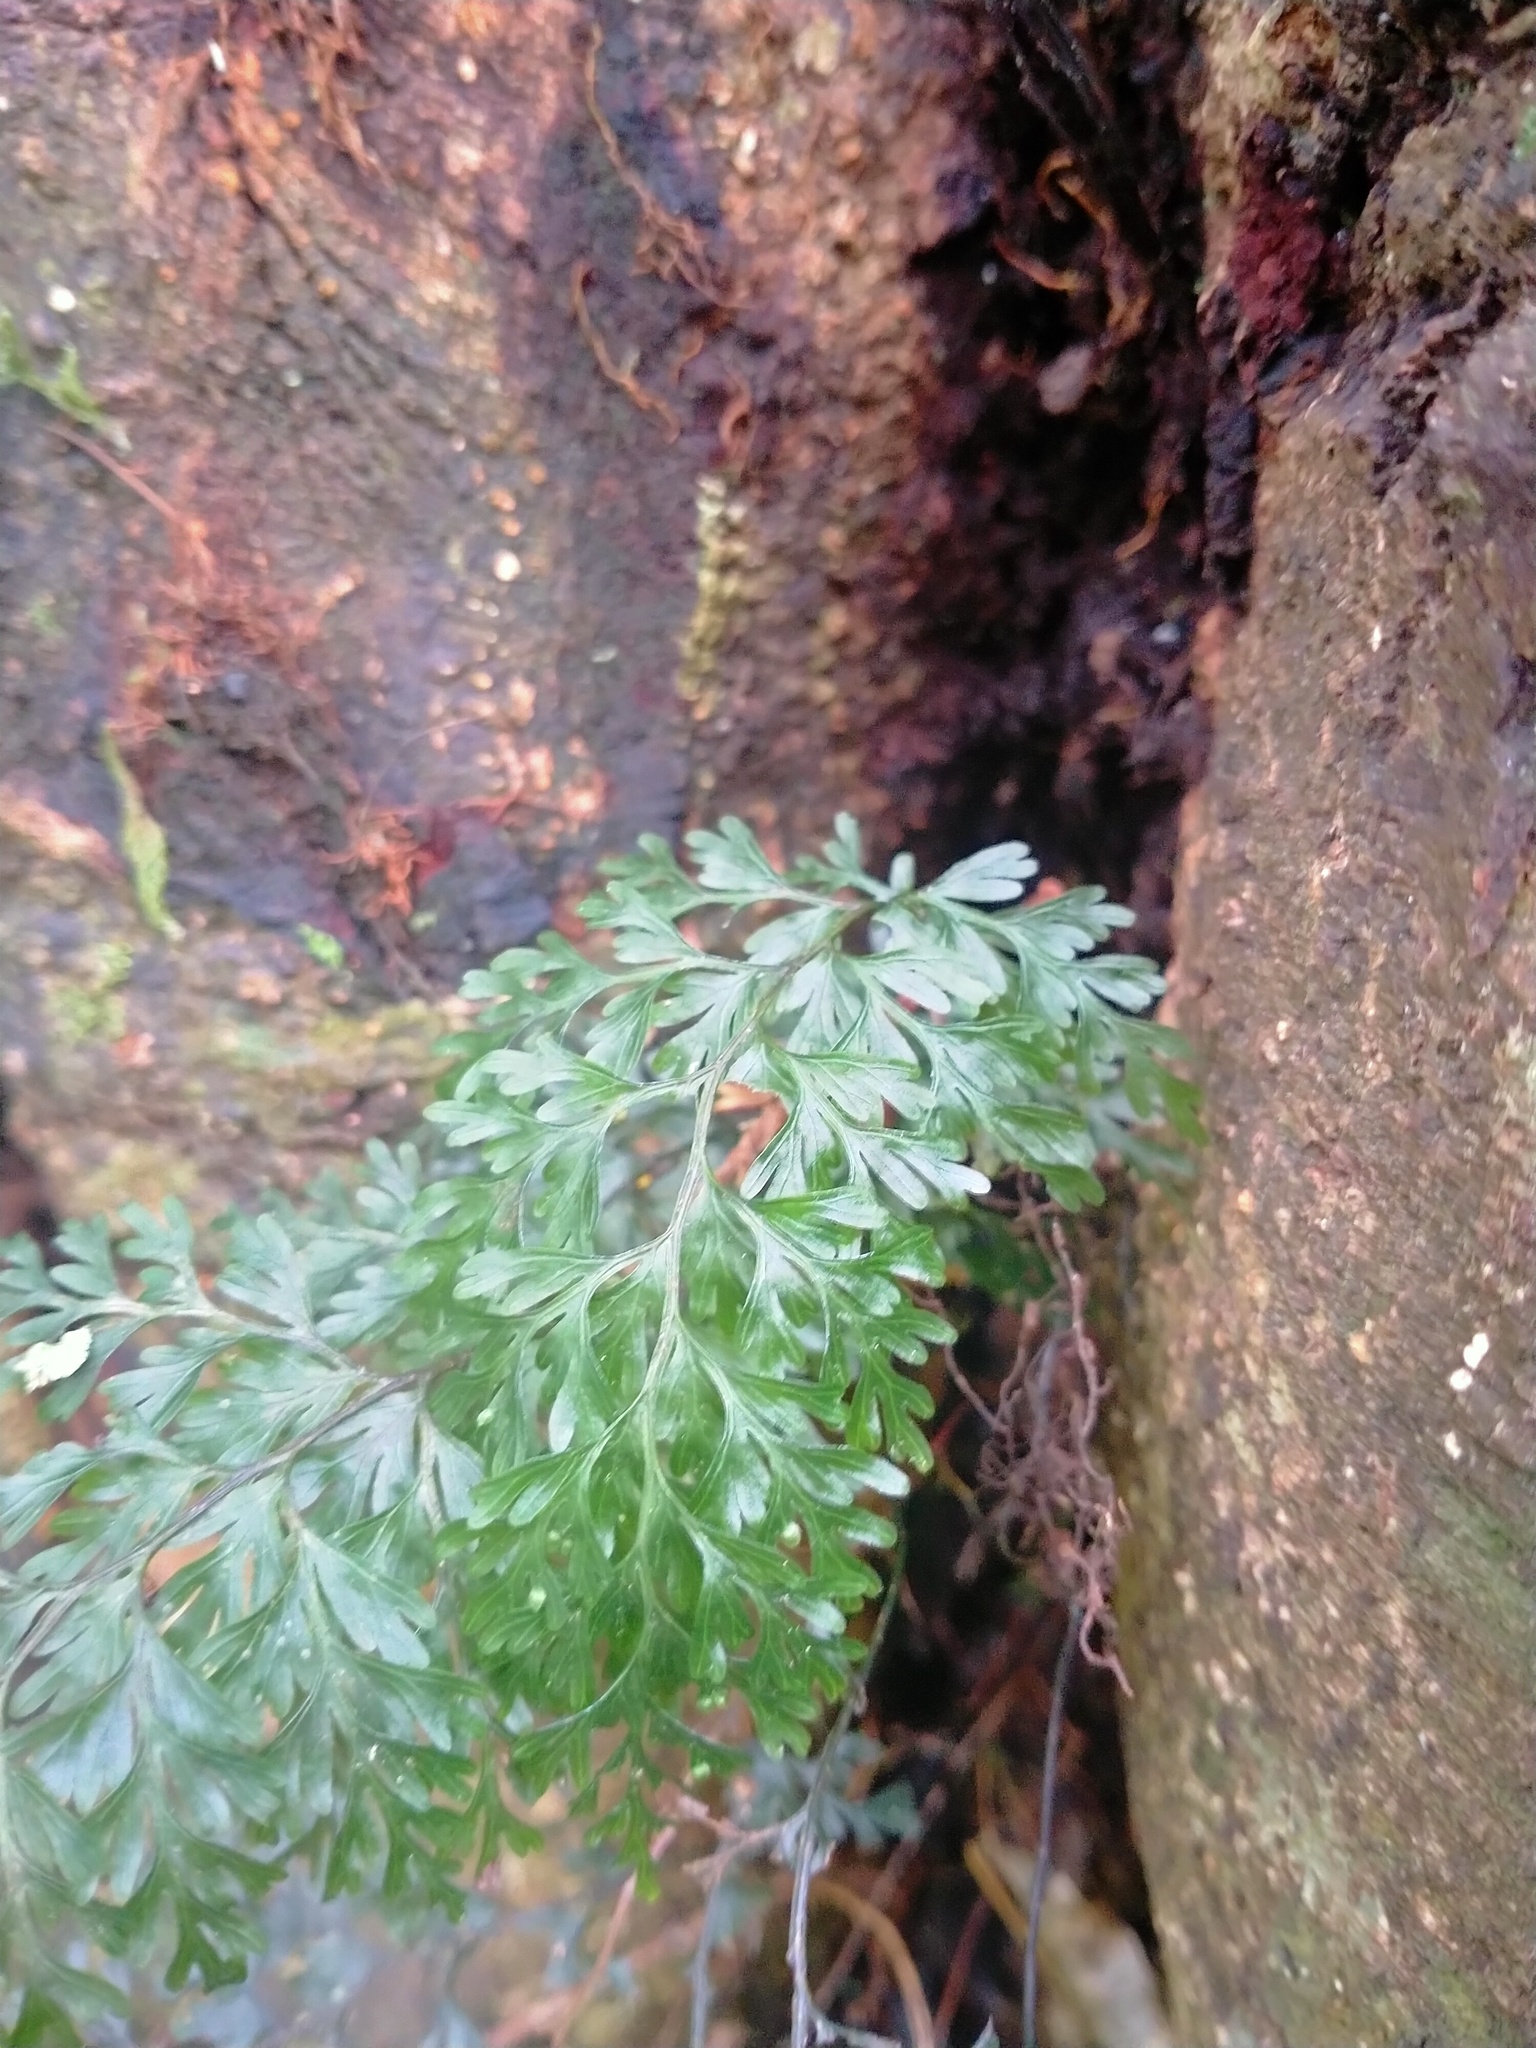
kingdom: Plantae
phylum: Tracheophyta
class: Polypodiopsida
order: Hymenophyllales
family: Hymenophyllaceae
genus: Hymenophyllum
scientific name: Hymenophyllum demissum
